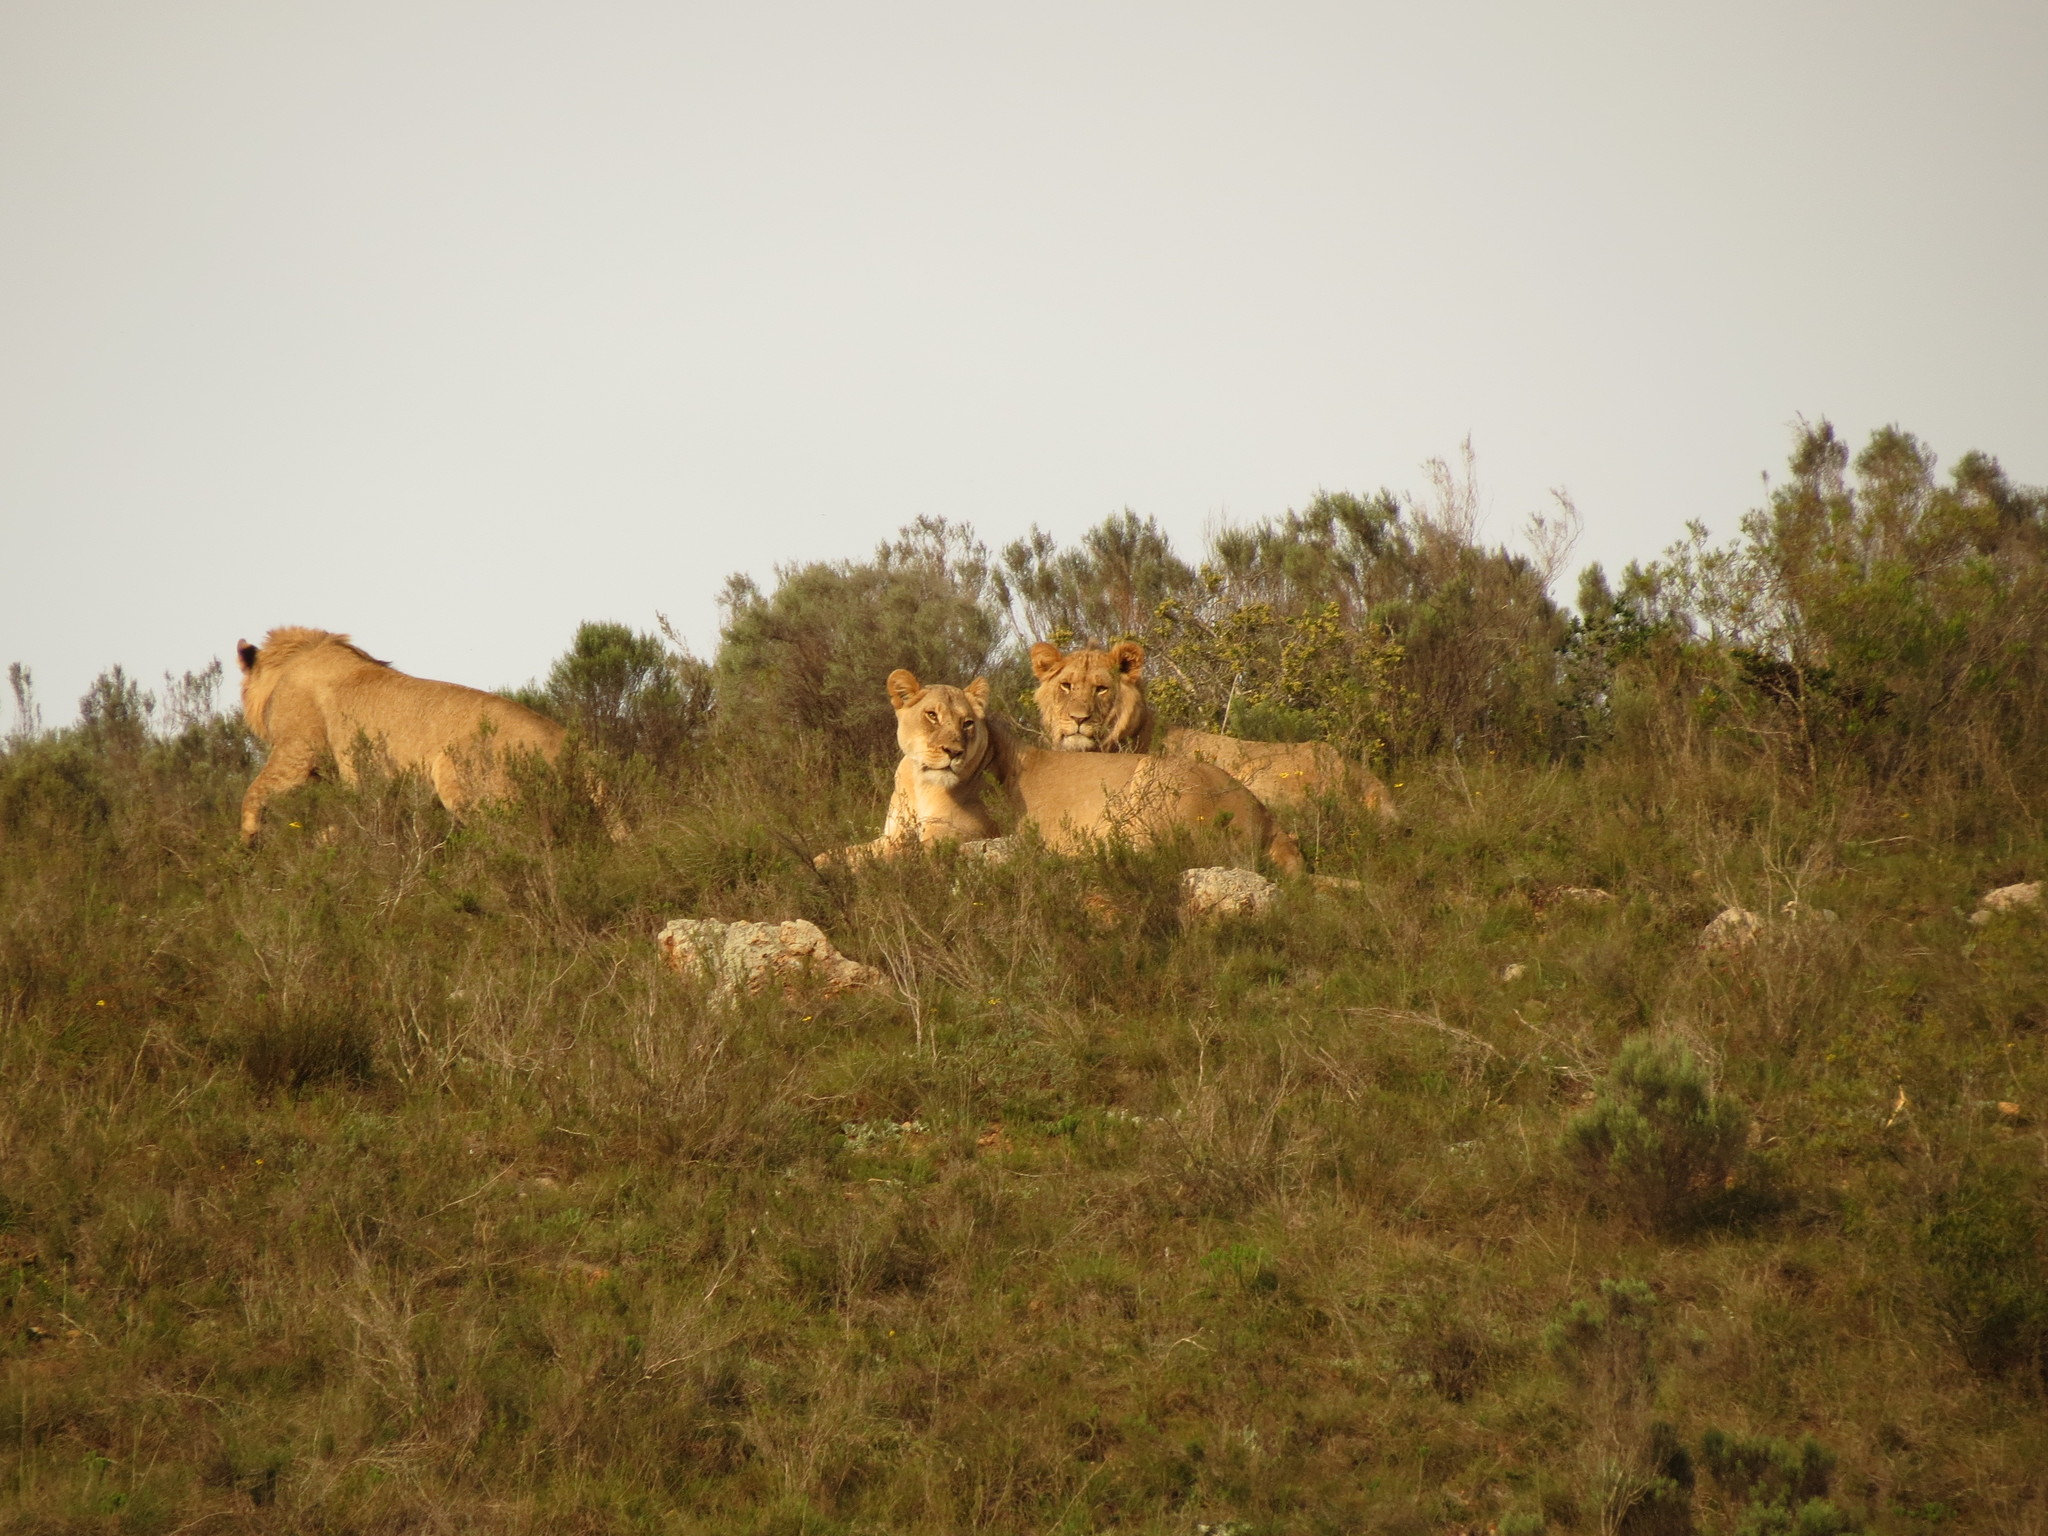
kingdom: Animalia
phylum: Chordata
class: Mammalia
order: Carnivora
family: Felidae
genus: Panthera
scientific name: Panthera leo
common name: Lion
